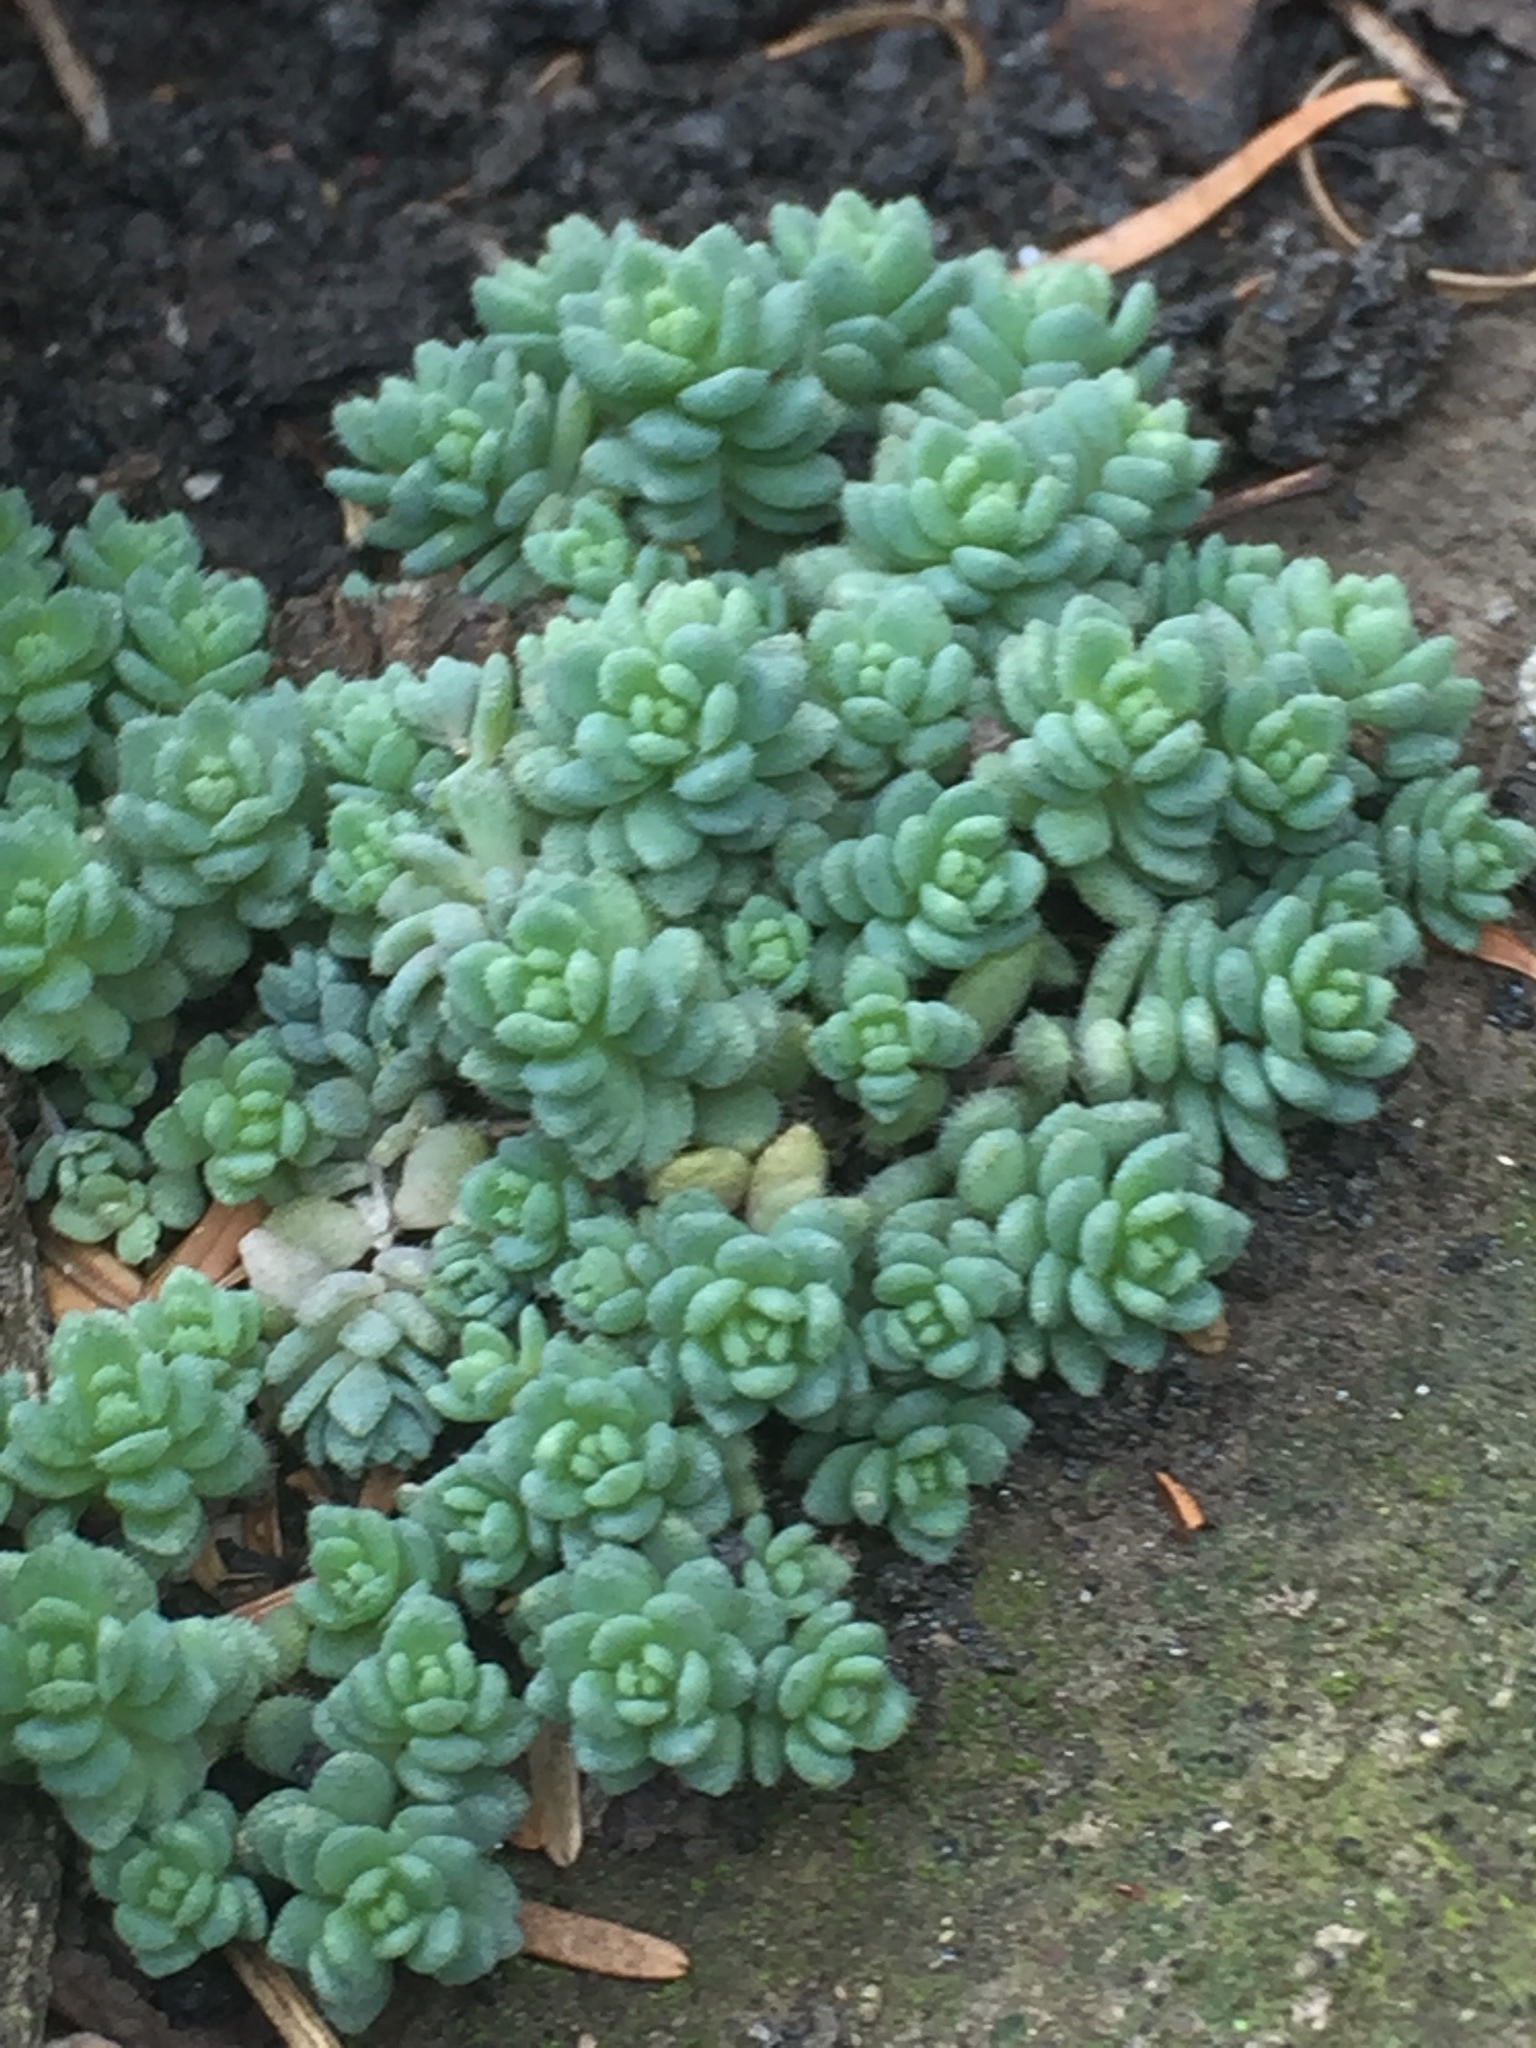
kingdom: Plantae
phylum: Tracheophyta
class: Magnoliopsida
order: Saxifragales
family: Crassulaceae
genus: Sedum
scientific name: Sedum dasyphyllum
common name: Thick-leaf stonecrop
